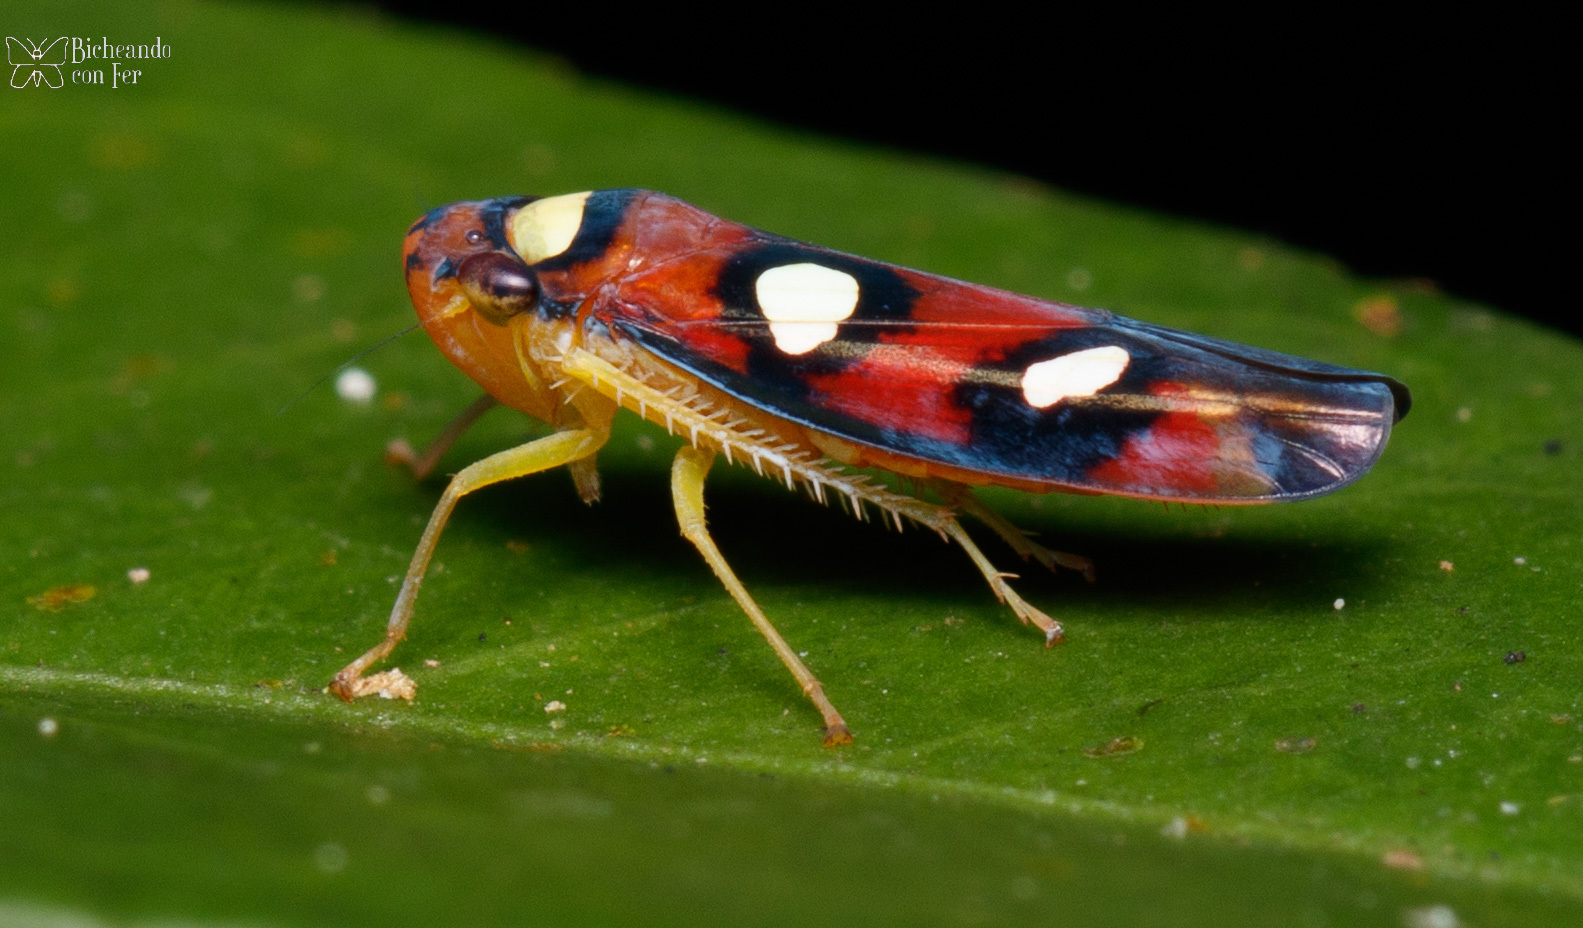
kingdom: Animalia
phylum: Arthropoda
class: Insecta
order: Hemiptera
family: Cicadellidae
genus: Erythrogonia
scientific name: Erythrogonia areolata
